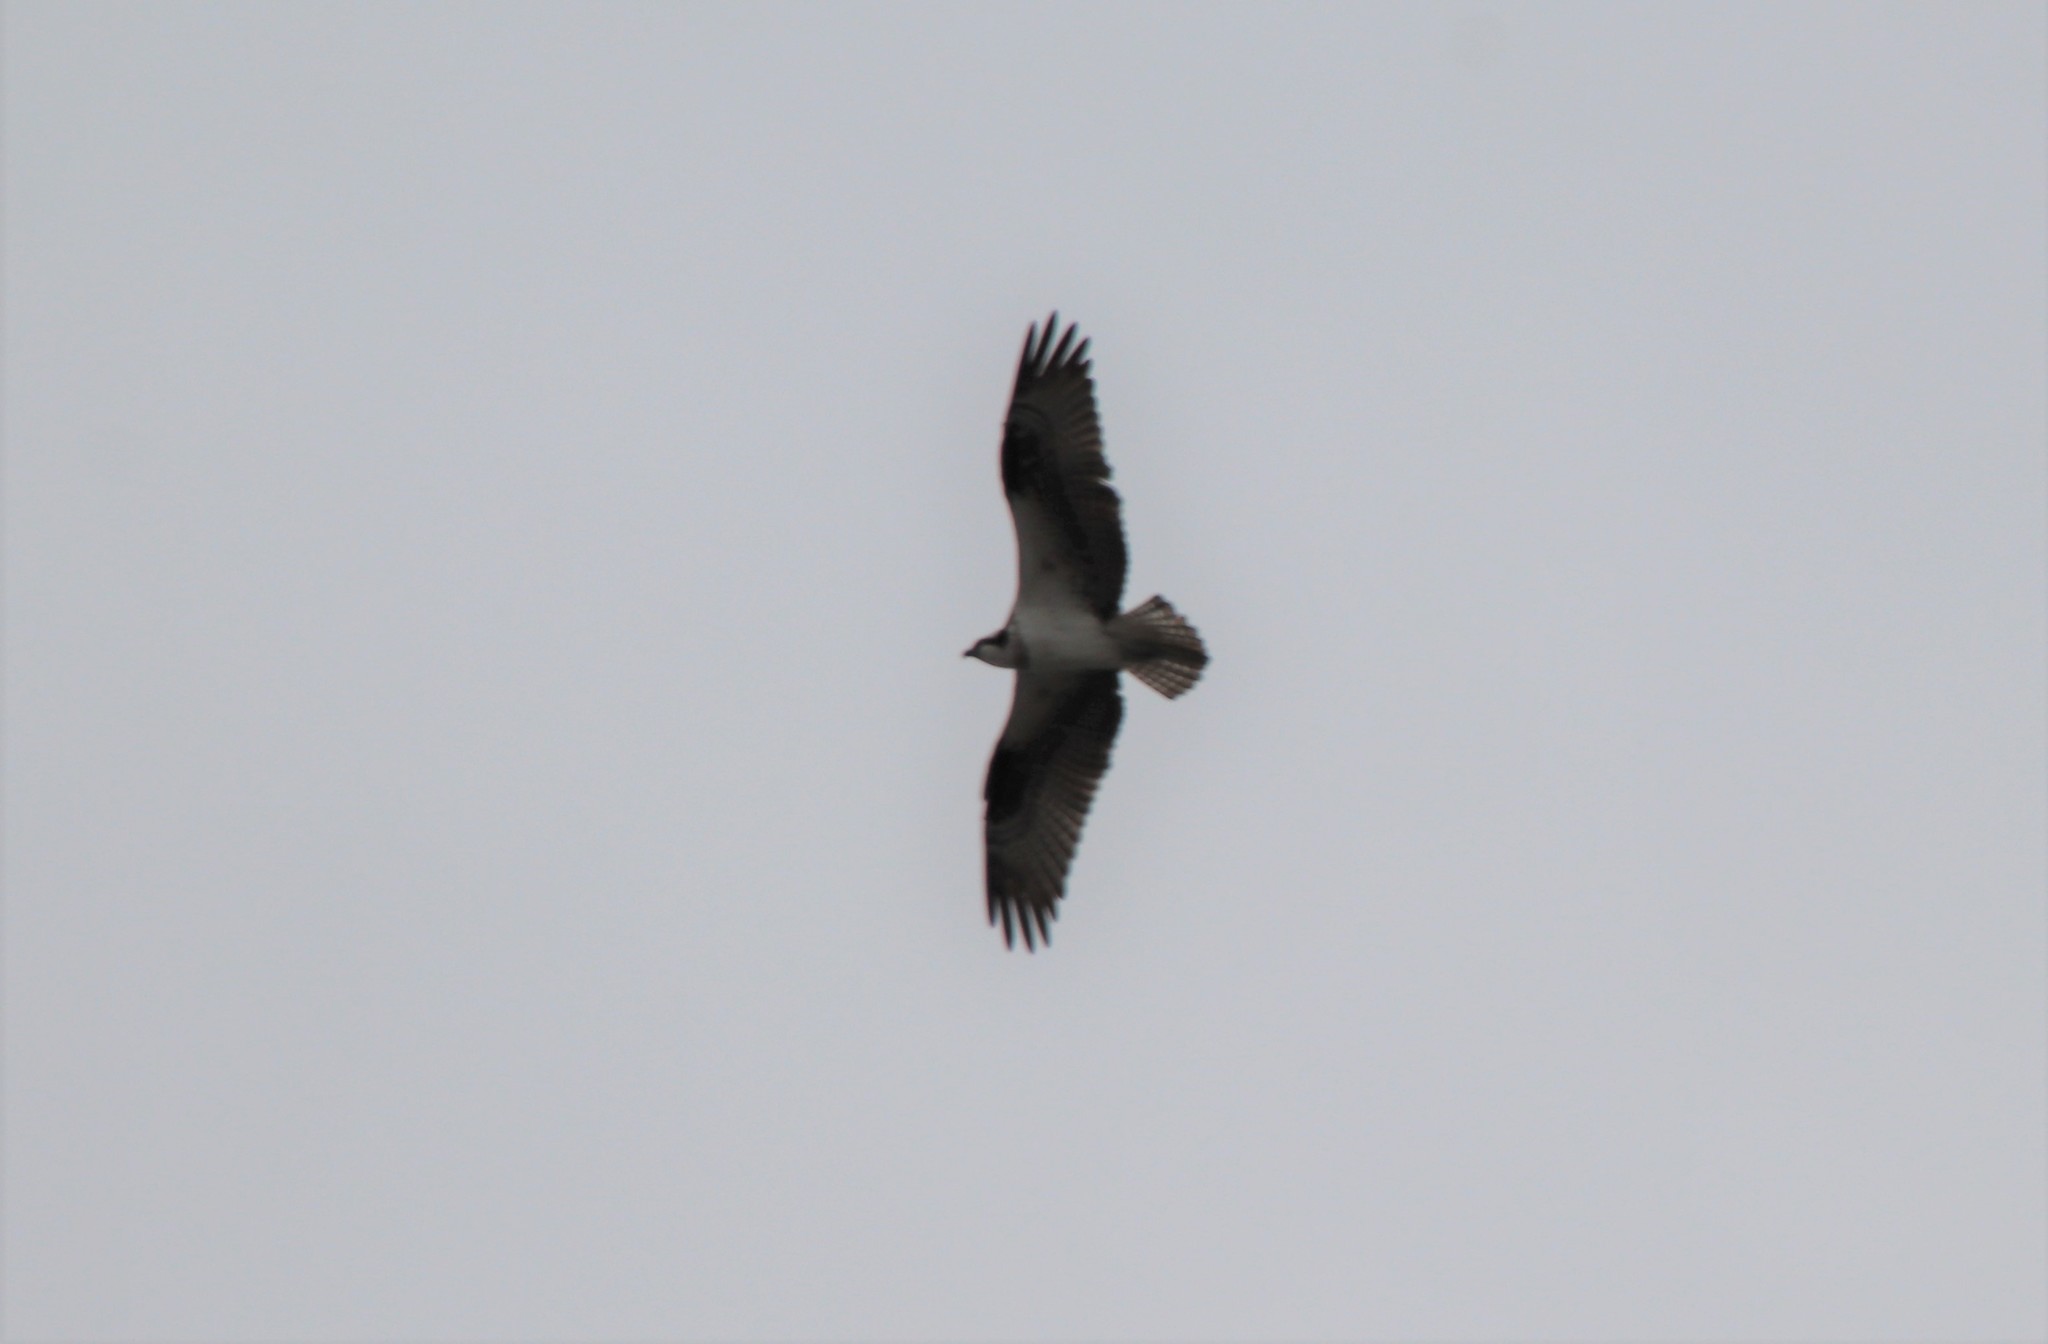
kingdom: Animalia
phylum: Chordata
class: Aves
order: Accipitriformes
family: Pandionidae
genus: Pandion
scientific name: Pandion haliaetus
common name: Osprey
